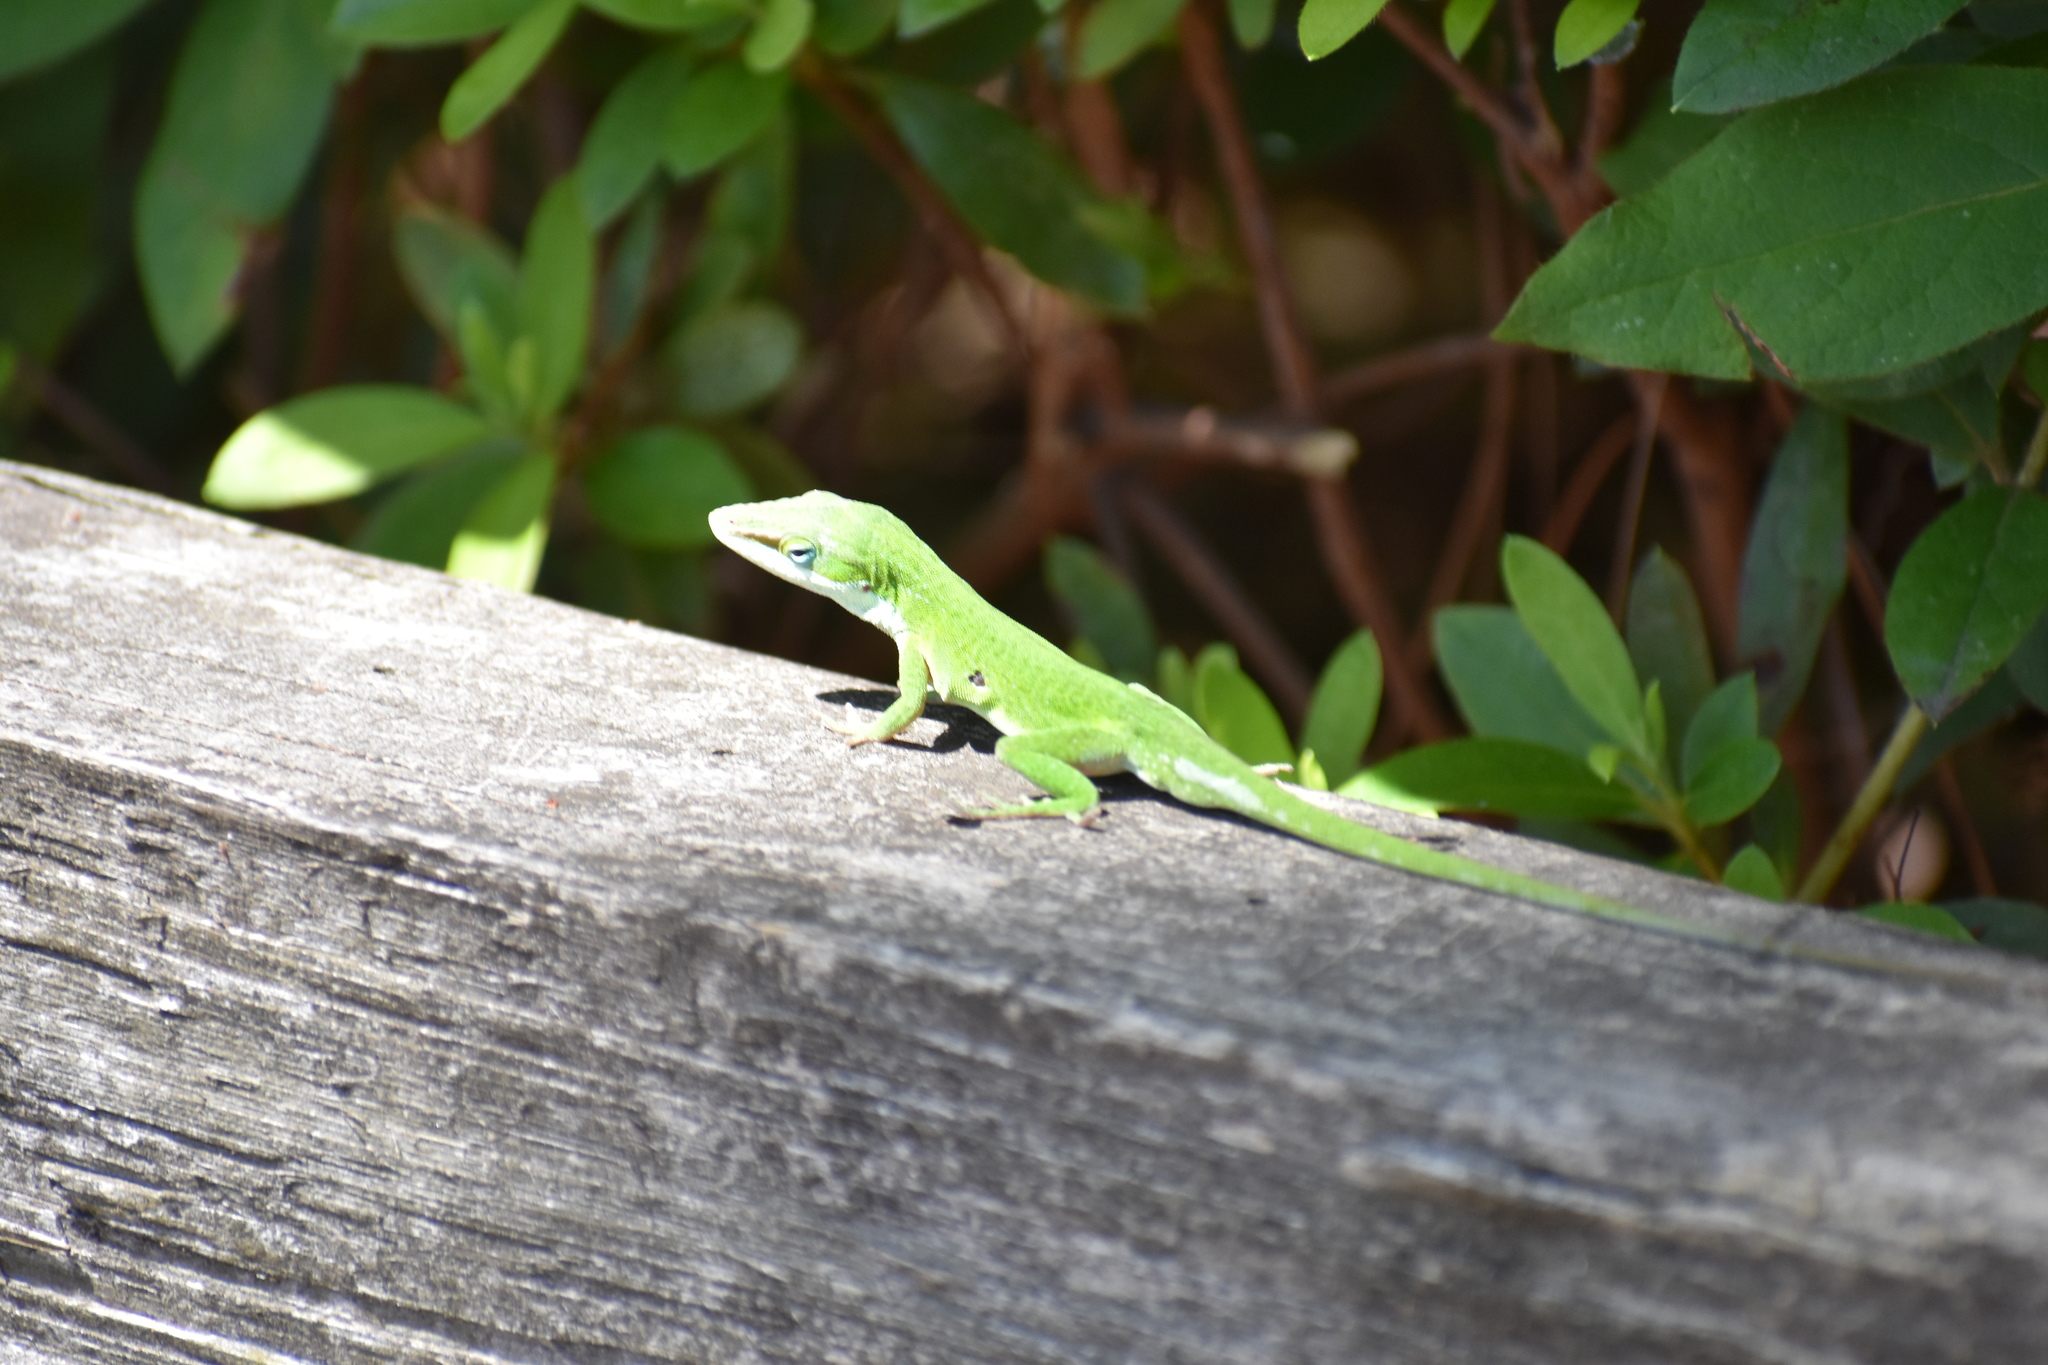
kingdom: Animalia
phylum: Chordata
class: Squamata
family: Dactyloidae
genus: Anolis
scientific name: Anolis carolinensis
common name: Green anole
